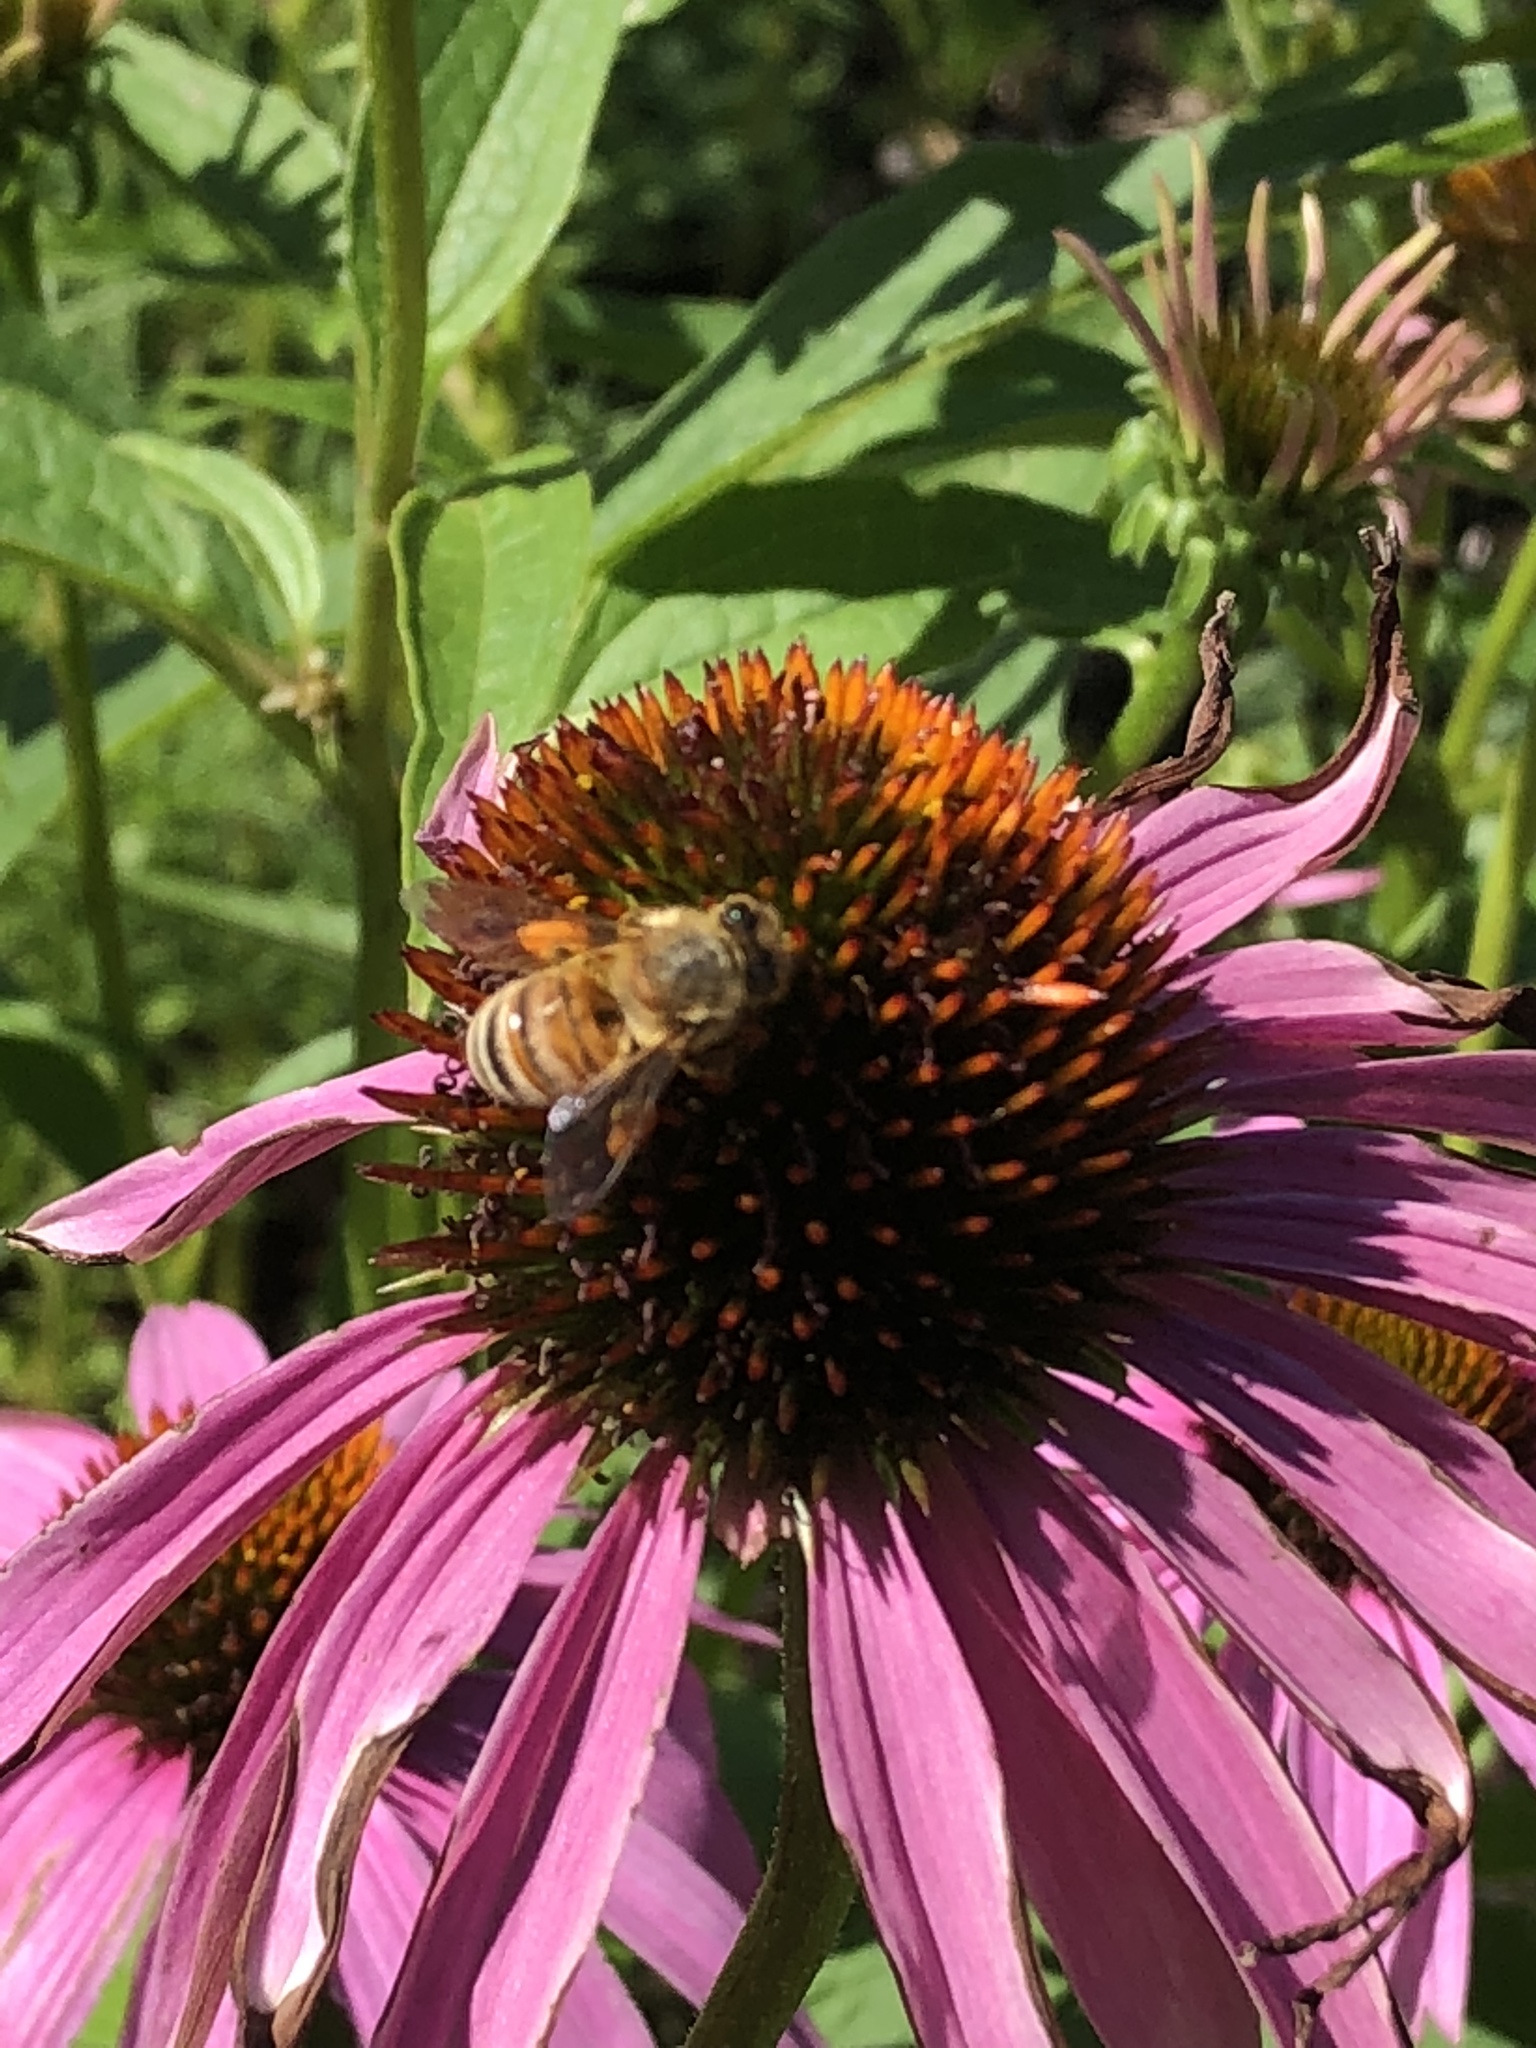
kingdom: Animalia
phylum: Arthropoda
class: Insecta
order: Hymenoptera
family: Apidae
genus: Apis
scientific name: Apis mellifera
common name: Honey bee
